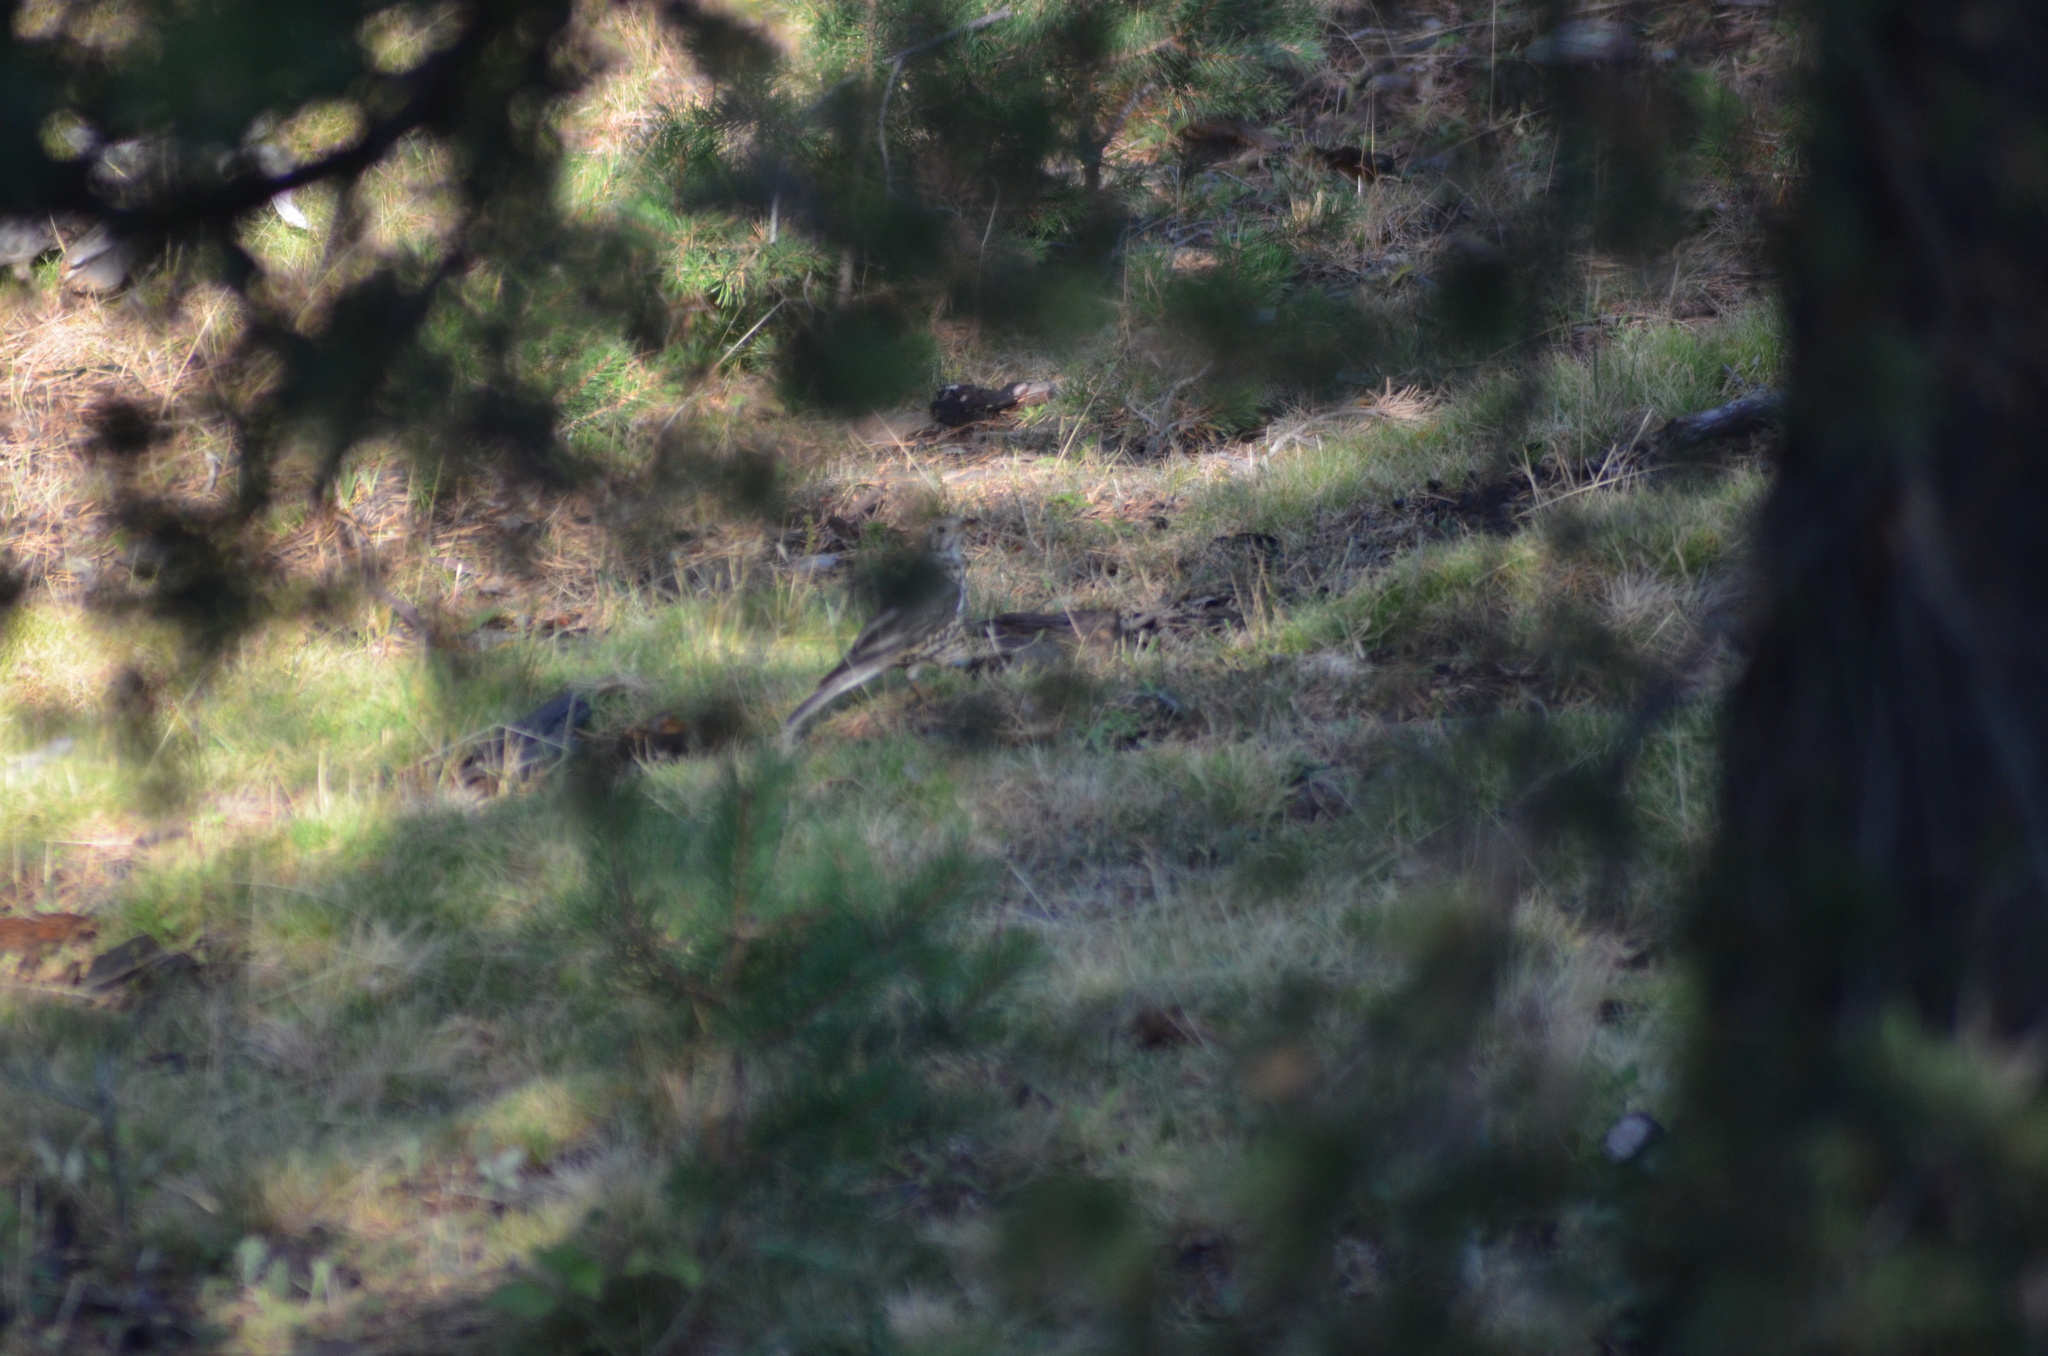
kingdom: Animalia
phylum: Chordata
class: Aves
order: Passeriformes
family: Turdidae
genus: Turdus
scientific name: Turdus viscivorus
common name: Mistle thrush
